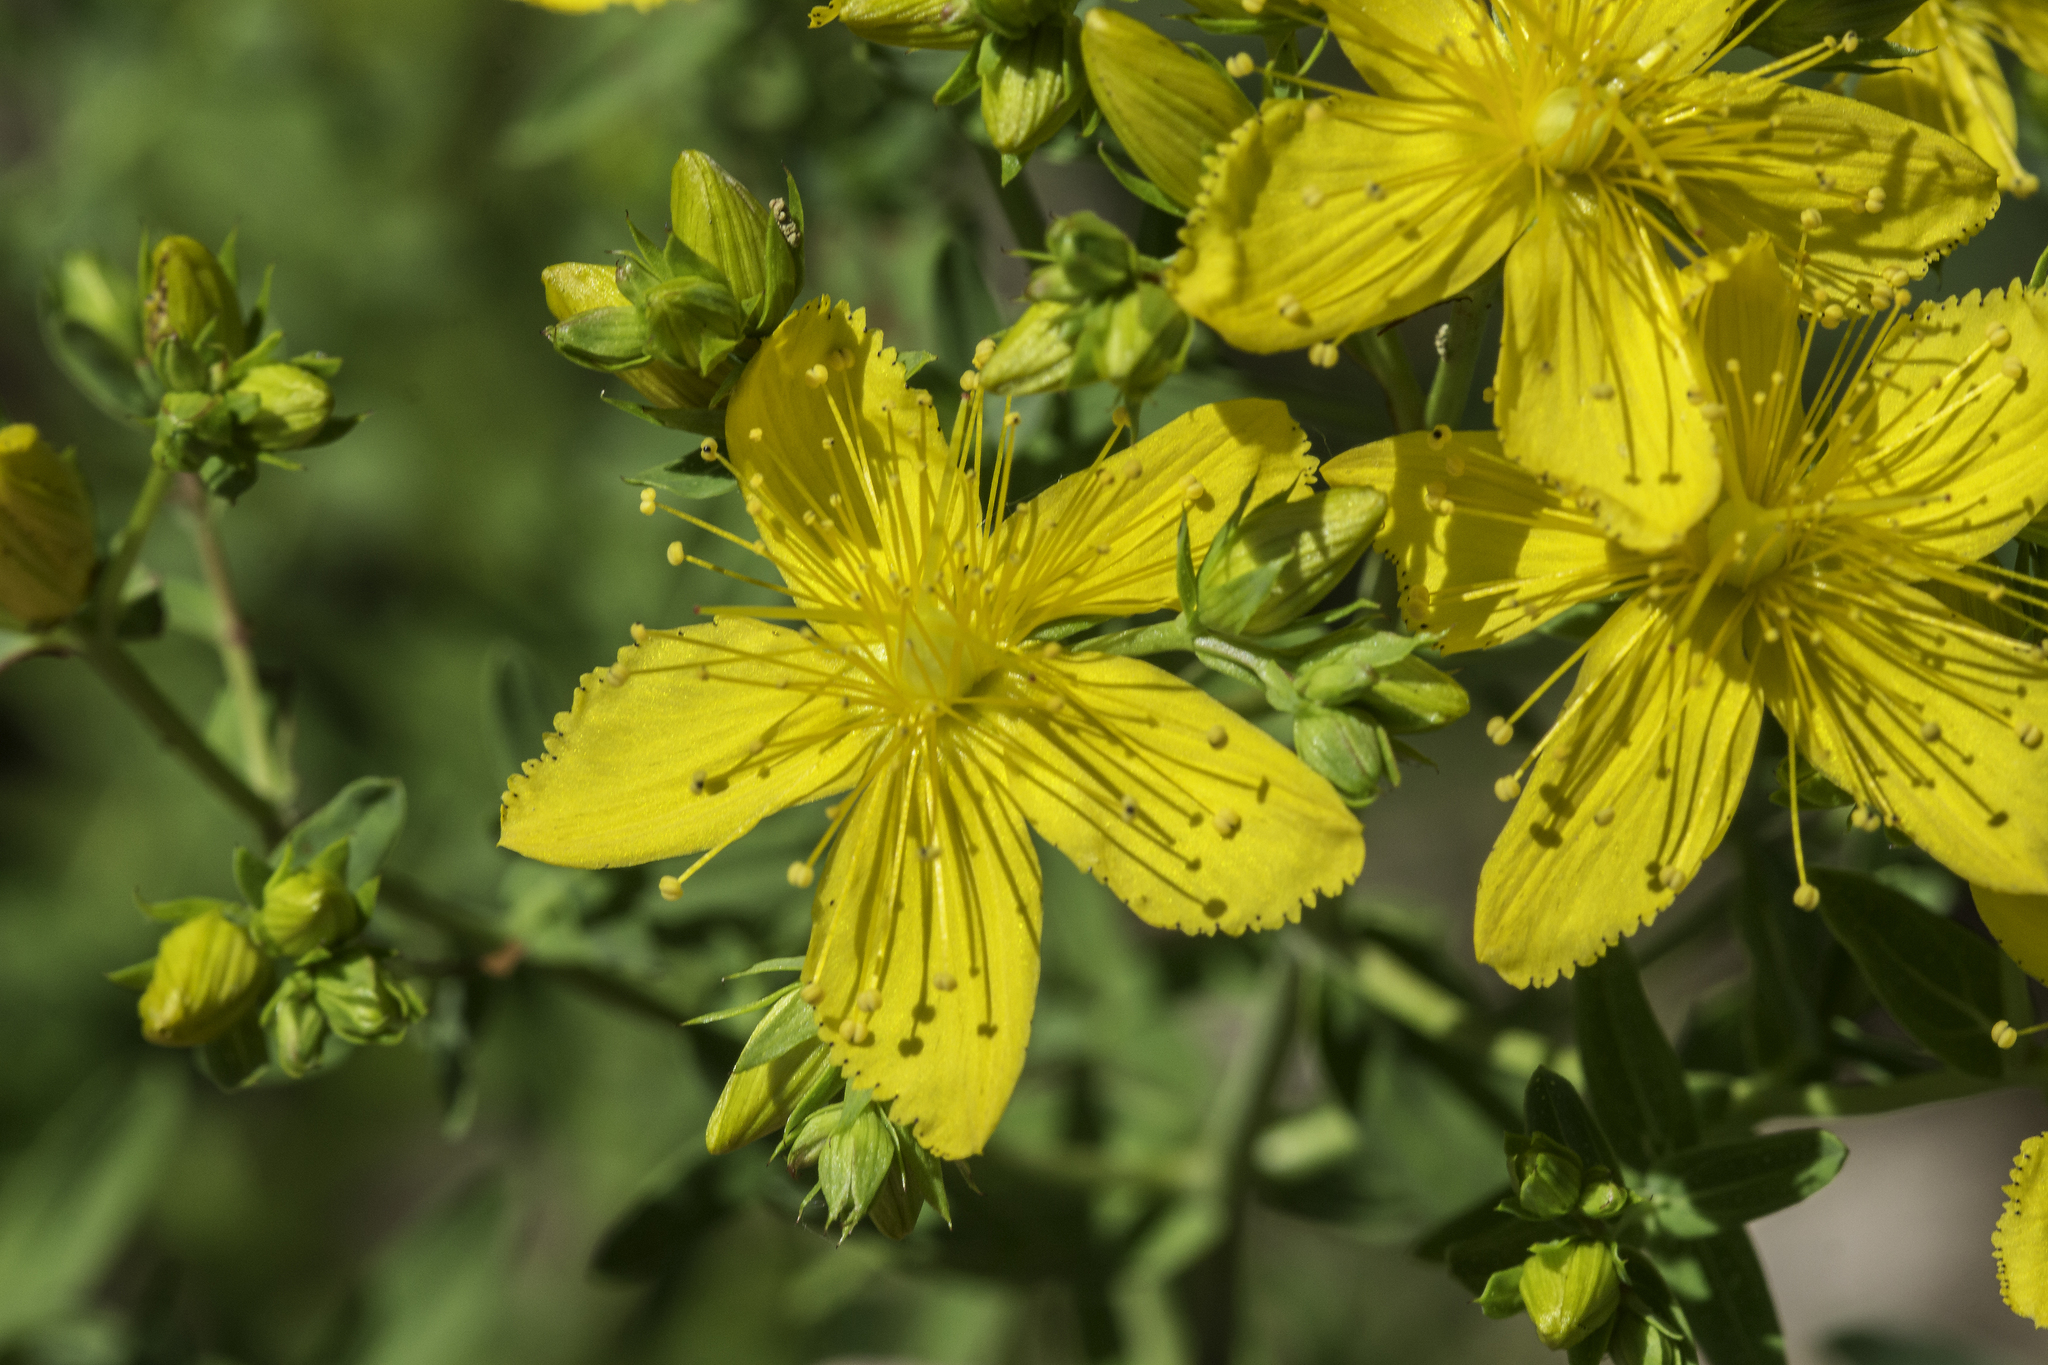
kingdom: Plantae
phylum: Tracheophyta
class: Magnoliopsida
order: Malpighiales
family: Hypericaceae
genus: Hypericum
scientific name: Hypericum perforatum
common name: Common st. johnswort
